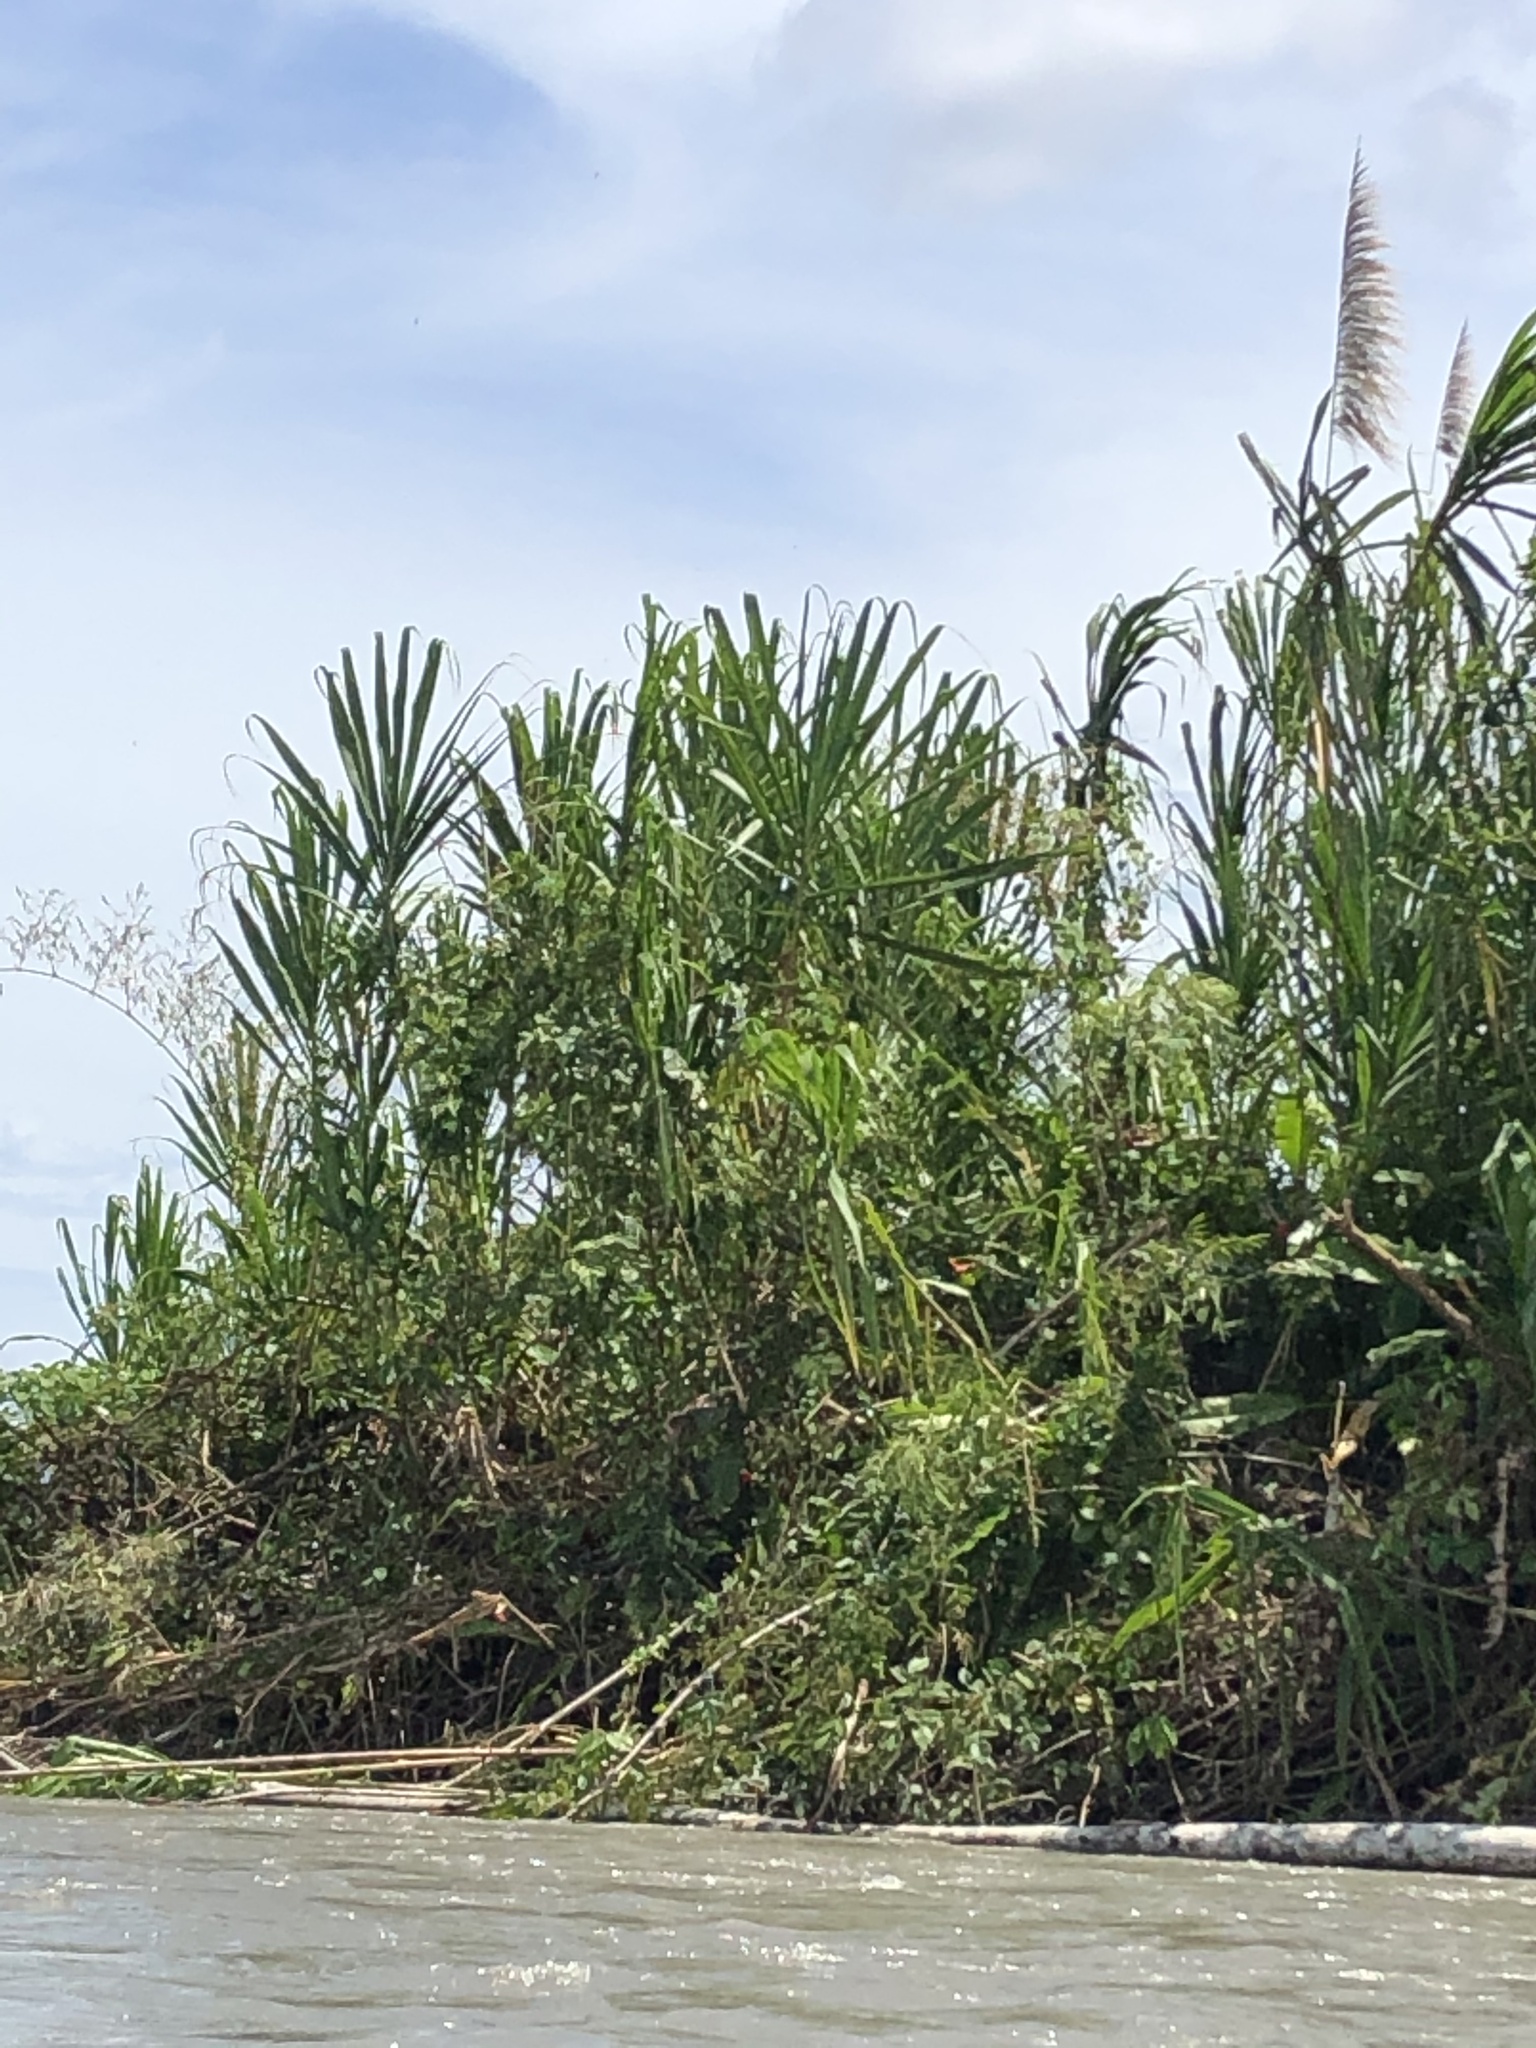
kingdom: Plantae
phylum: Tracheophyta
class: Liliopsida
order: Poales
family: Poaceae
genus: Gynerium
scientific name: Gynerium sagittatum
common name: Wild cane
